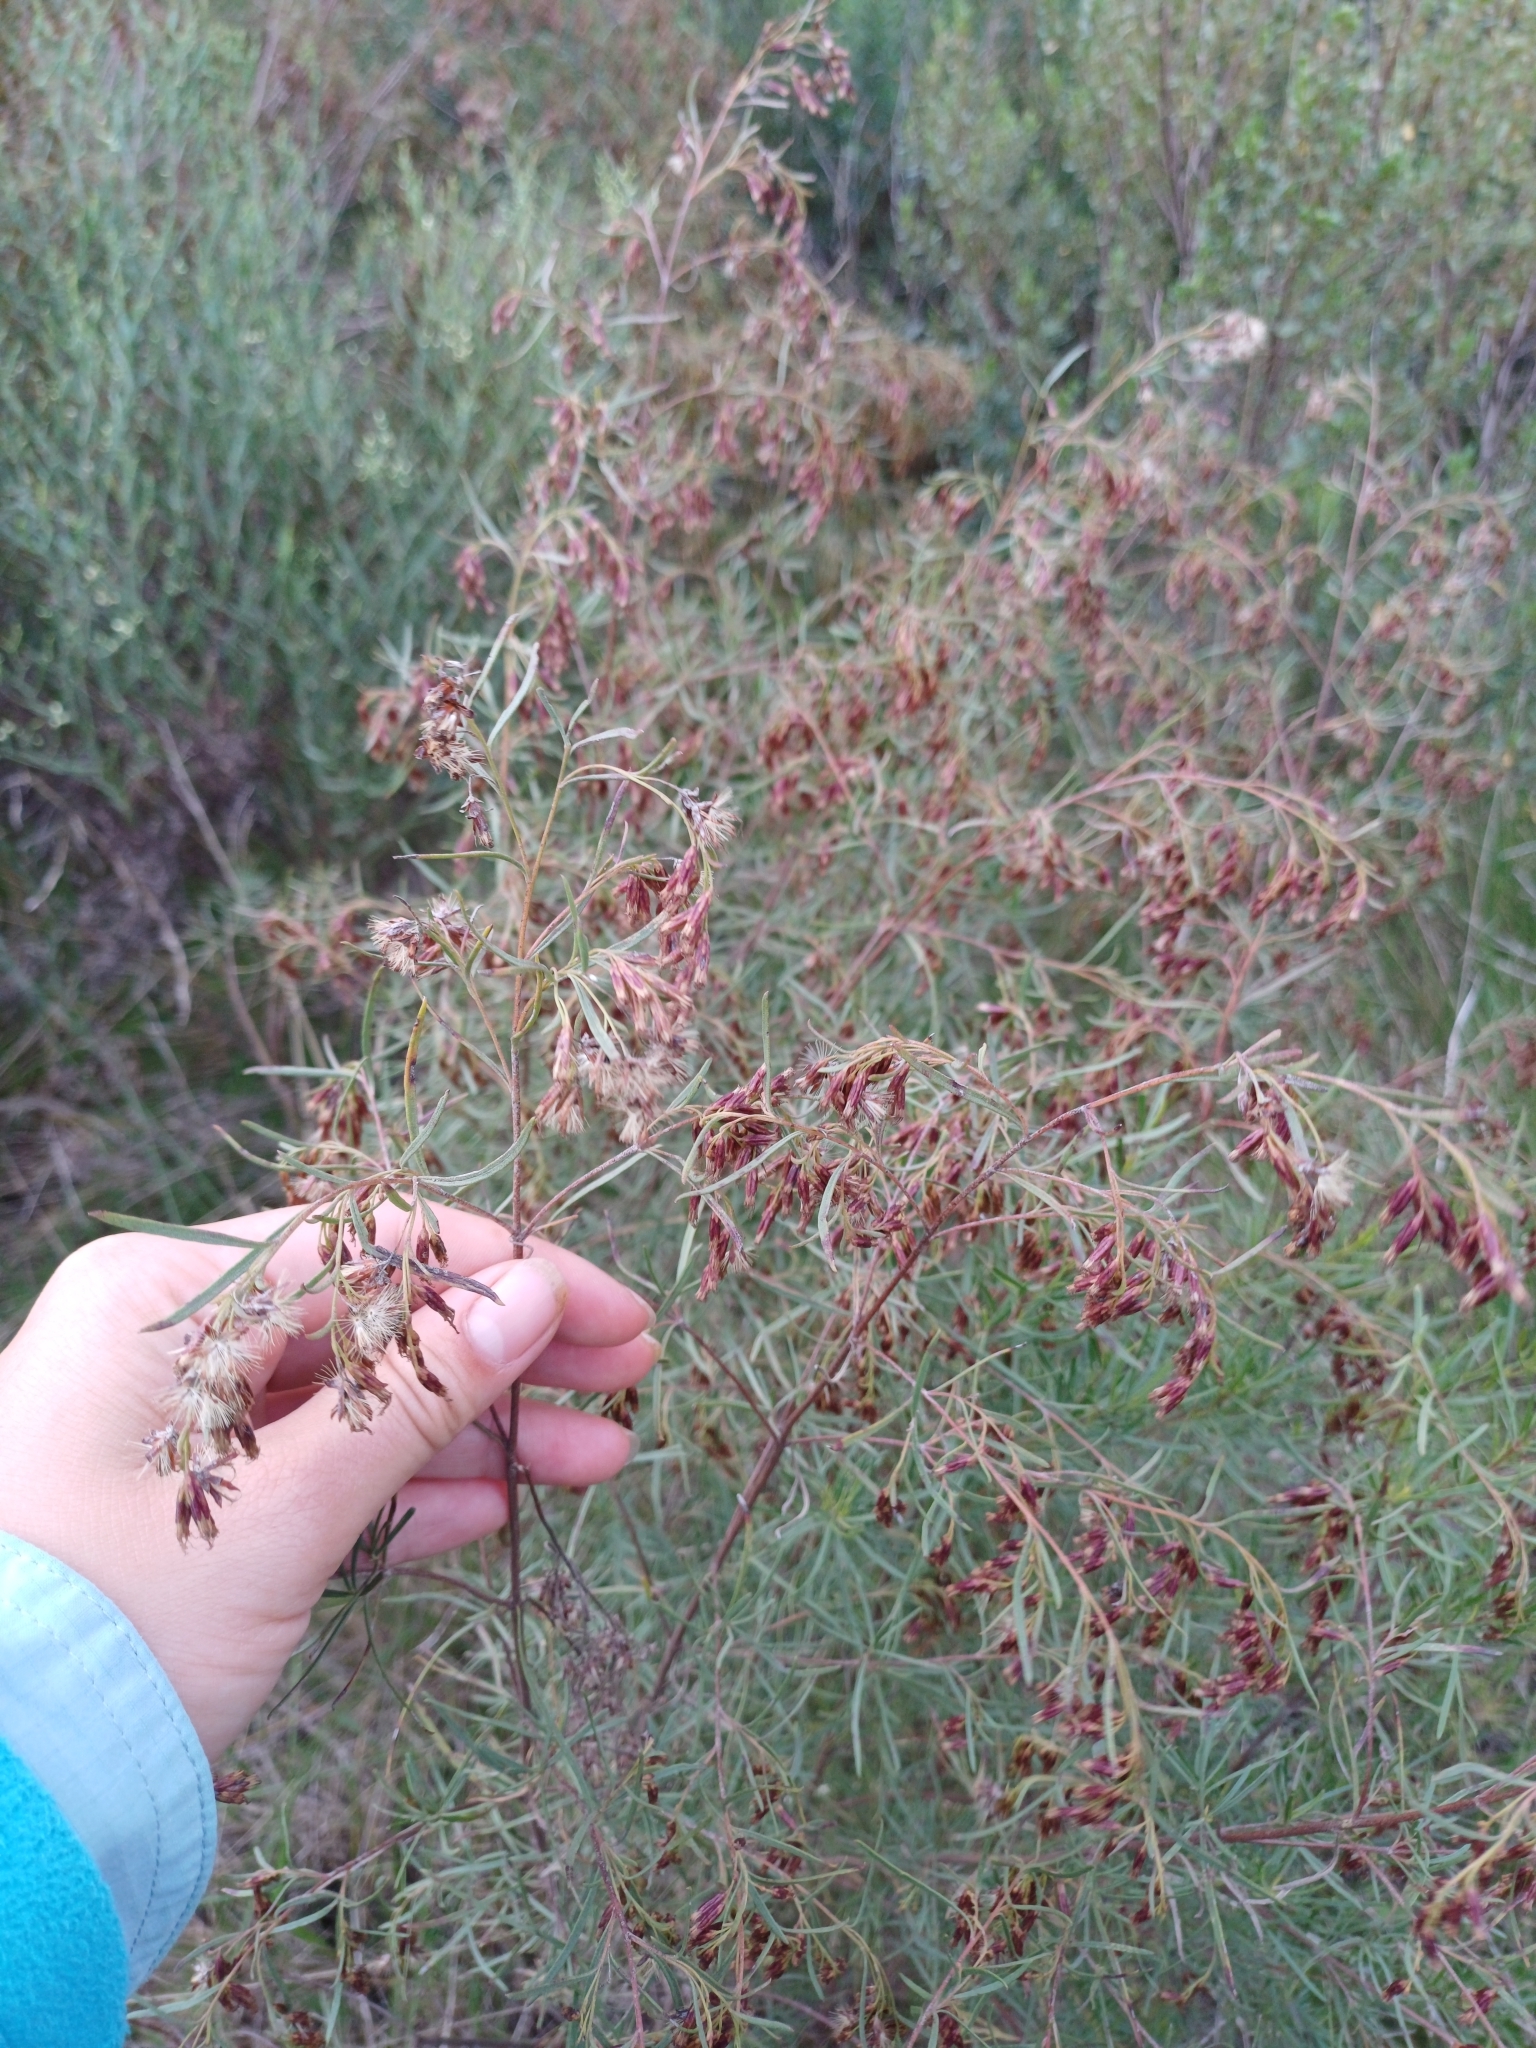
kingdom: Plantae
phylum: Tracheophyta
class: Magnoliopsida
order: Asterales
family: Asteraceae
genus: Acanthostyles
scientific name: Acanthostyles buniifolius
